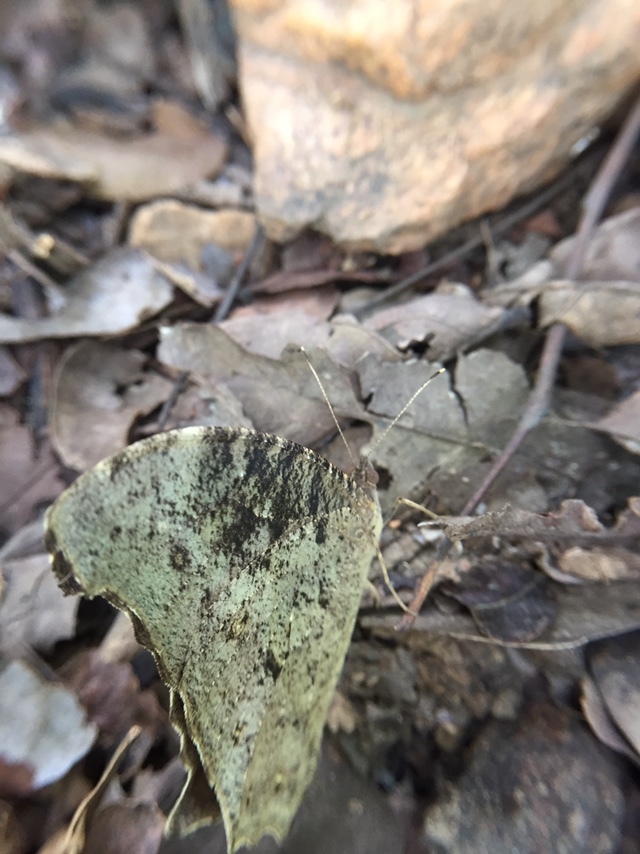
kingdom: Animalia
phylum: Arthropoda
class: Insecta
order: Lepidoptera
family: Nymphalidae
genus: Melanitis
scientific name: Melanitis leda
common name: Twilight brown
